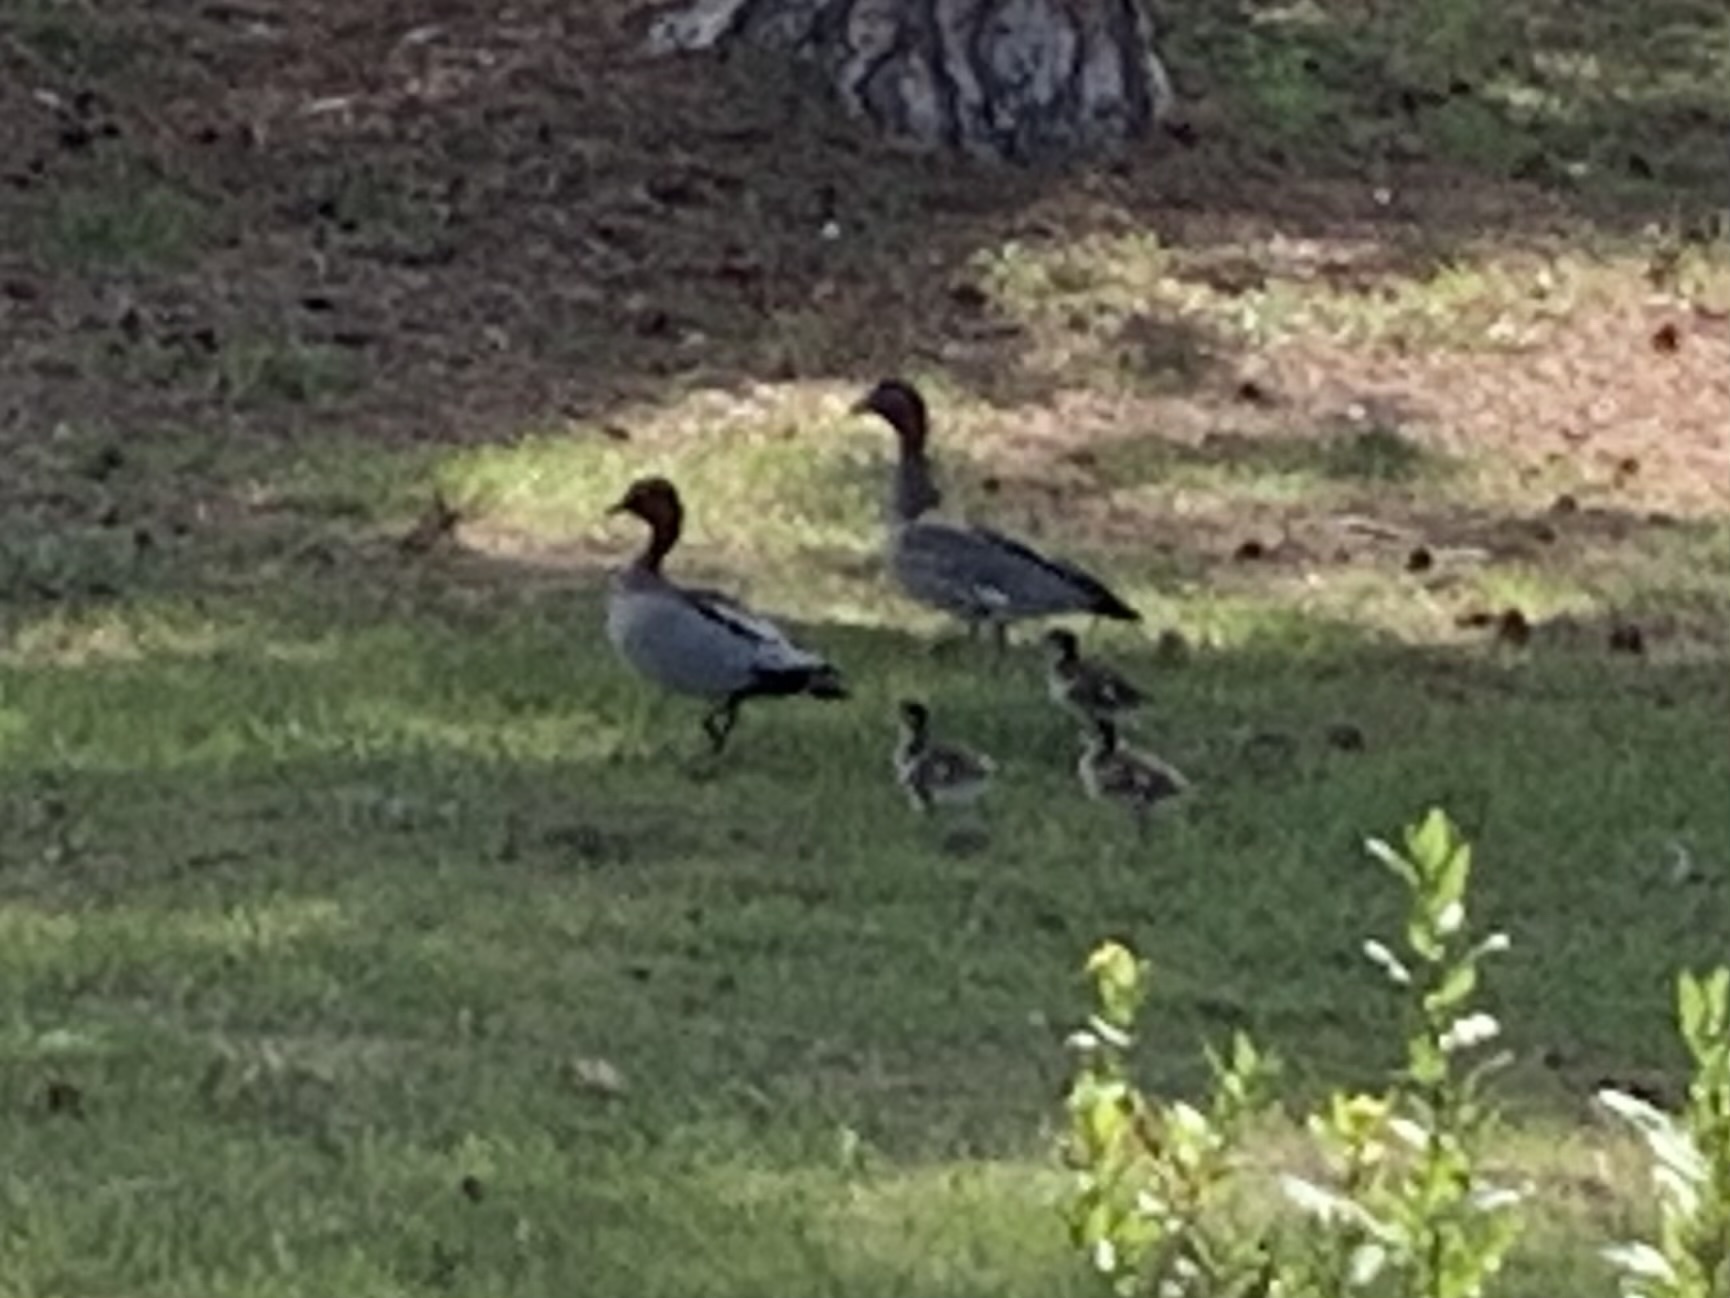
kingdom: Animalia
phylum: Chordata
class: Aves
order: Anseriformes
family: Anatidae
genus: Chenonetta
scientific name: Chenonetta jubata
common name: Maned duck
